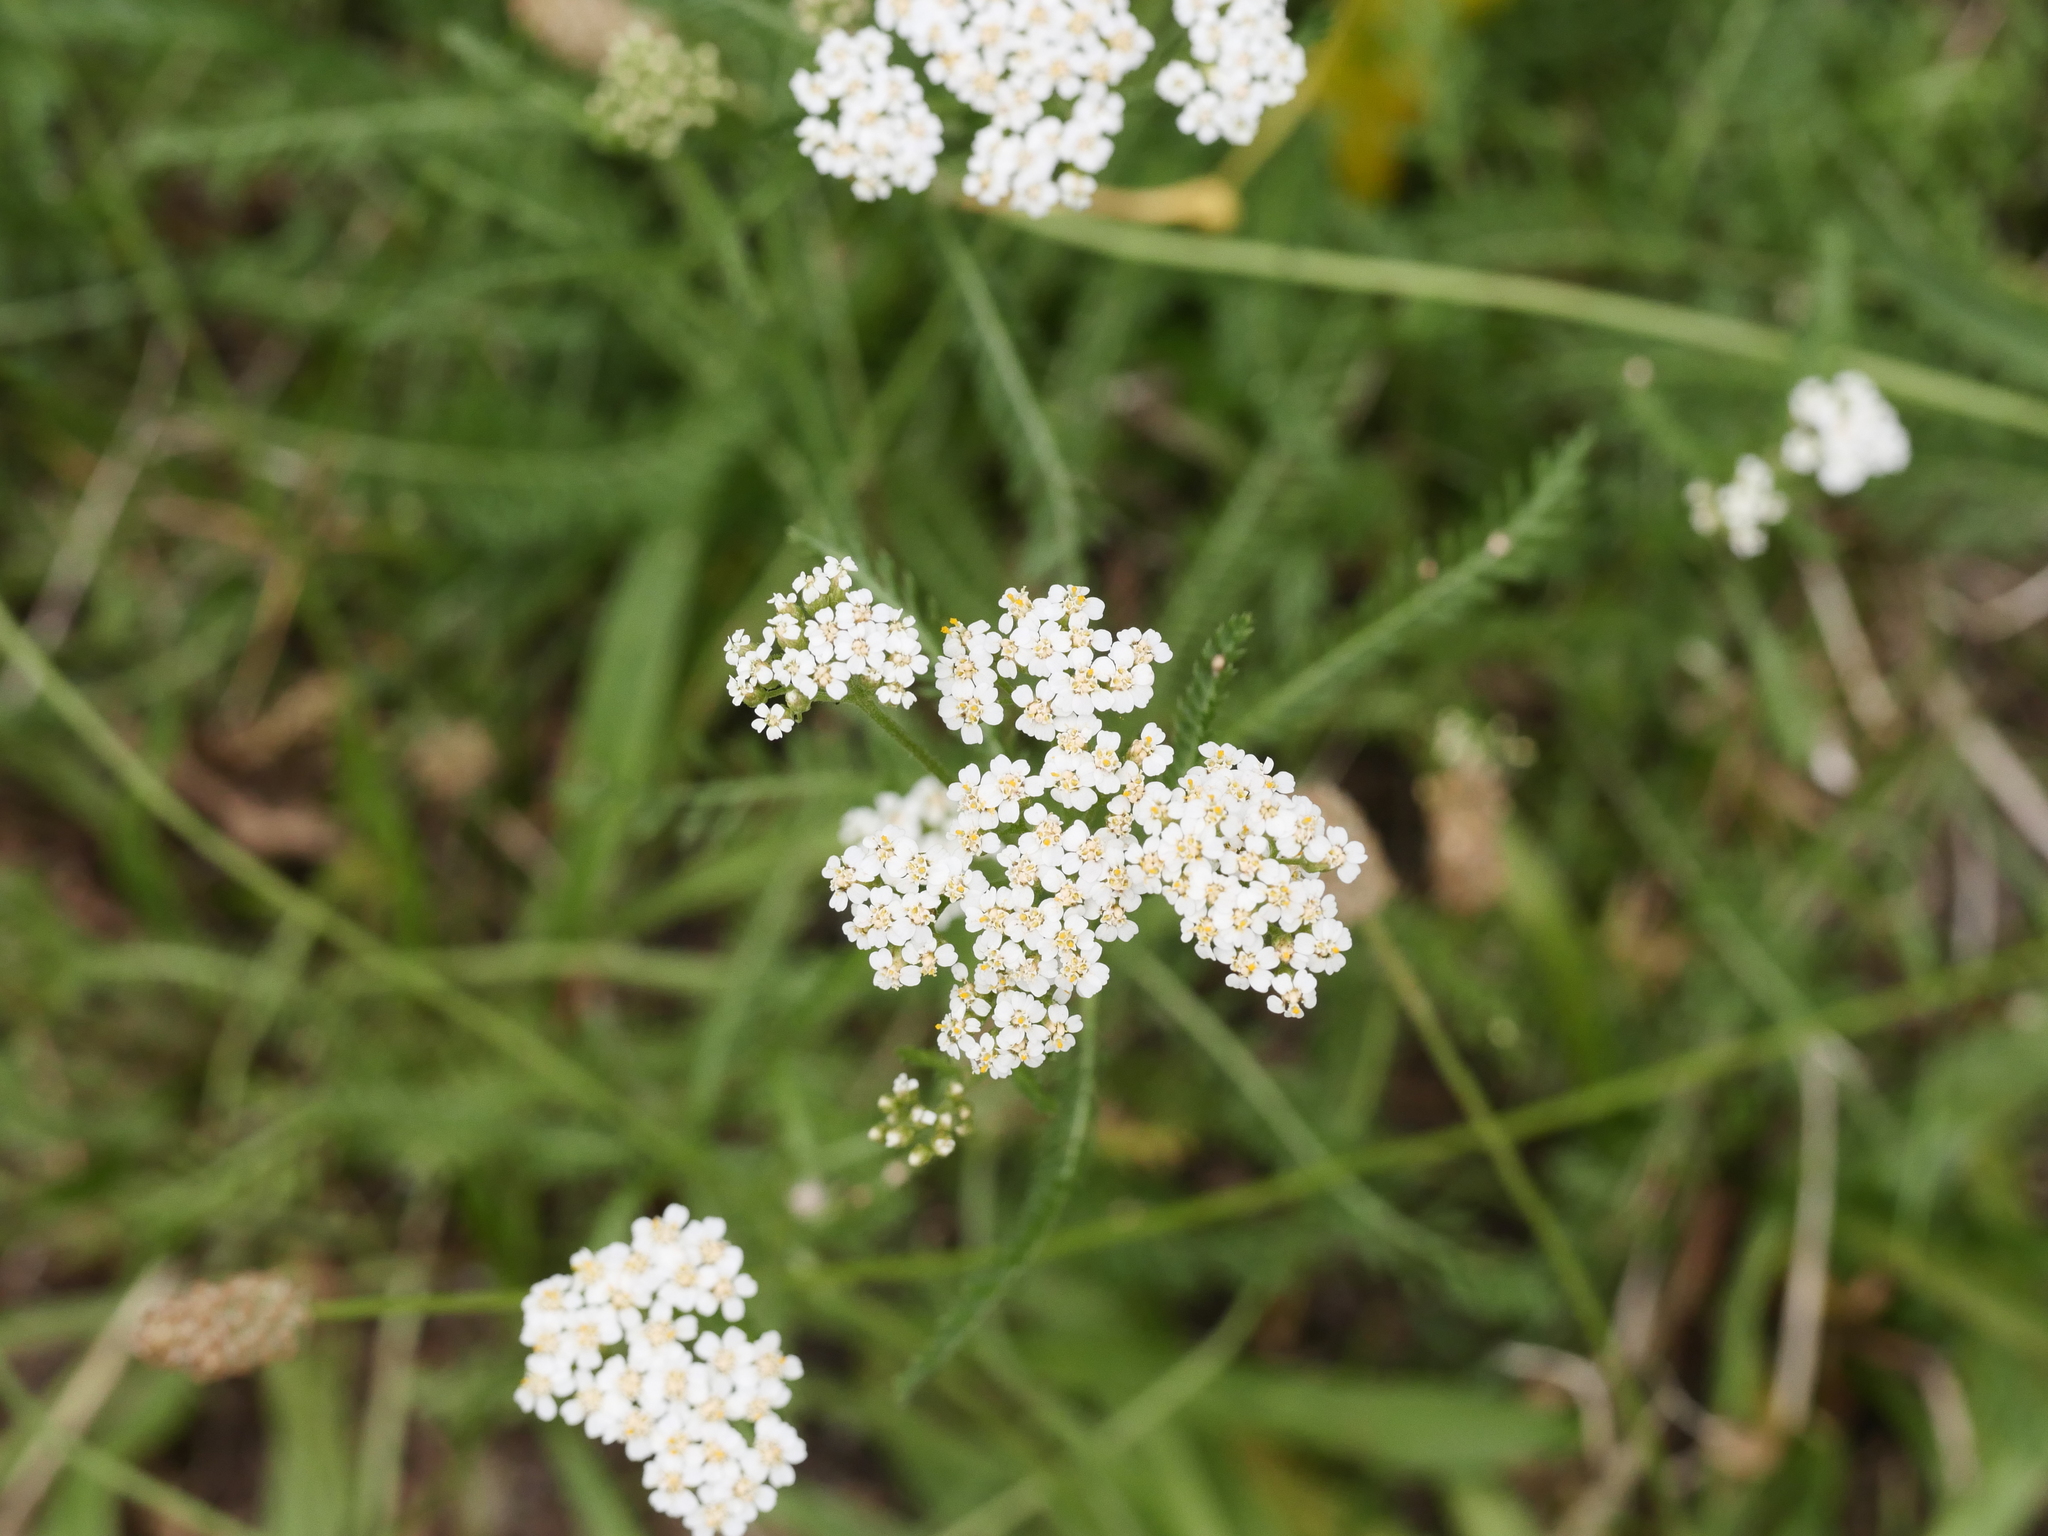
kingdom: Plantae
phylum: Tracheophyta
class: Magnoliopsida
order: Asterales
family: Asteraceae
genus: Achillea
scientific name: Achillea millefolium
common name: Yarrow
